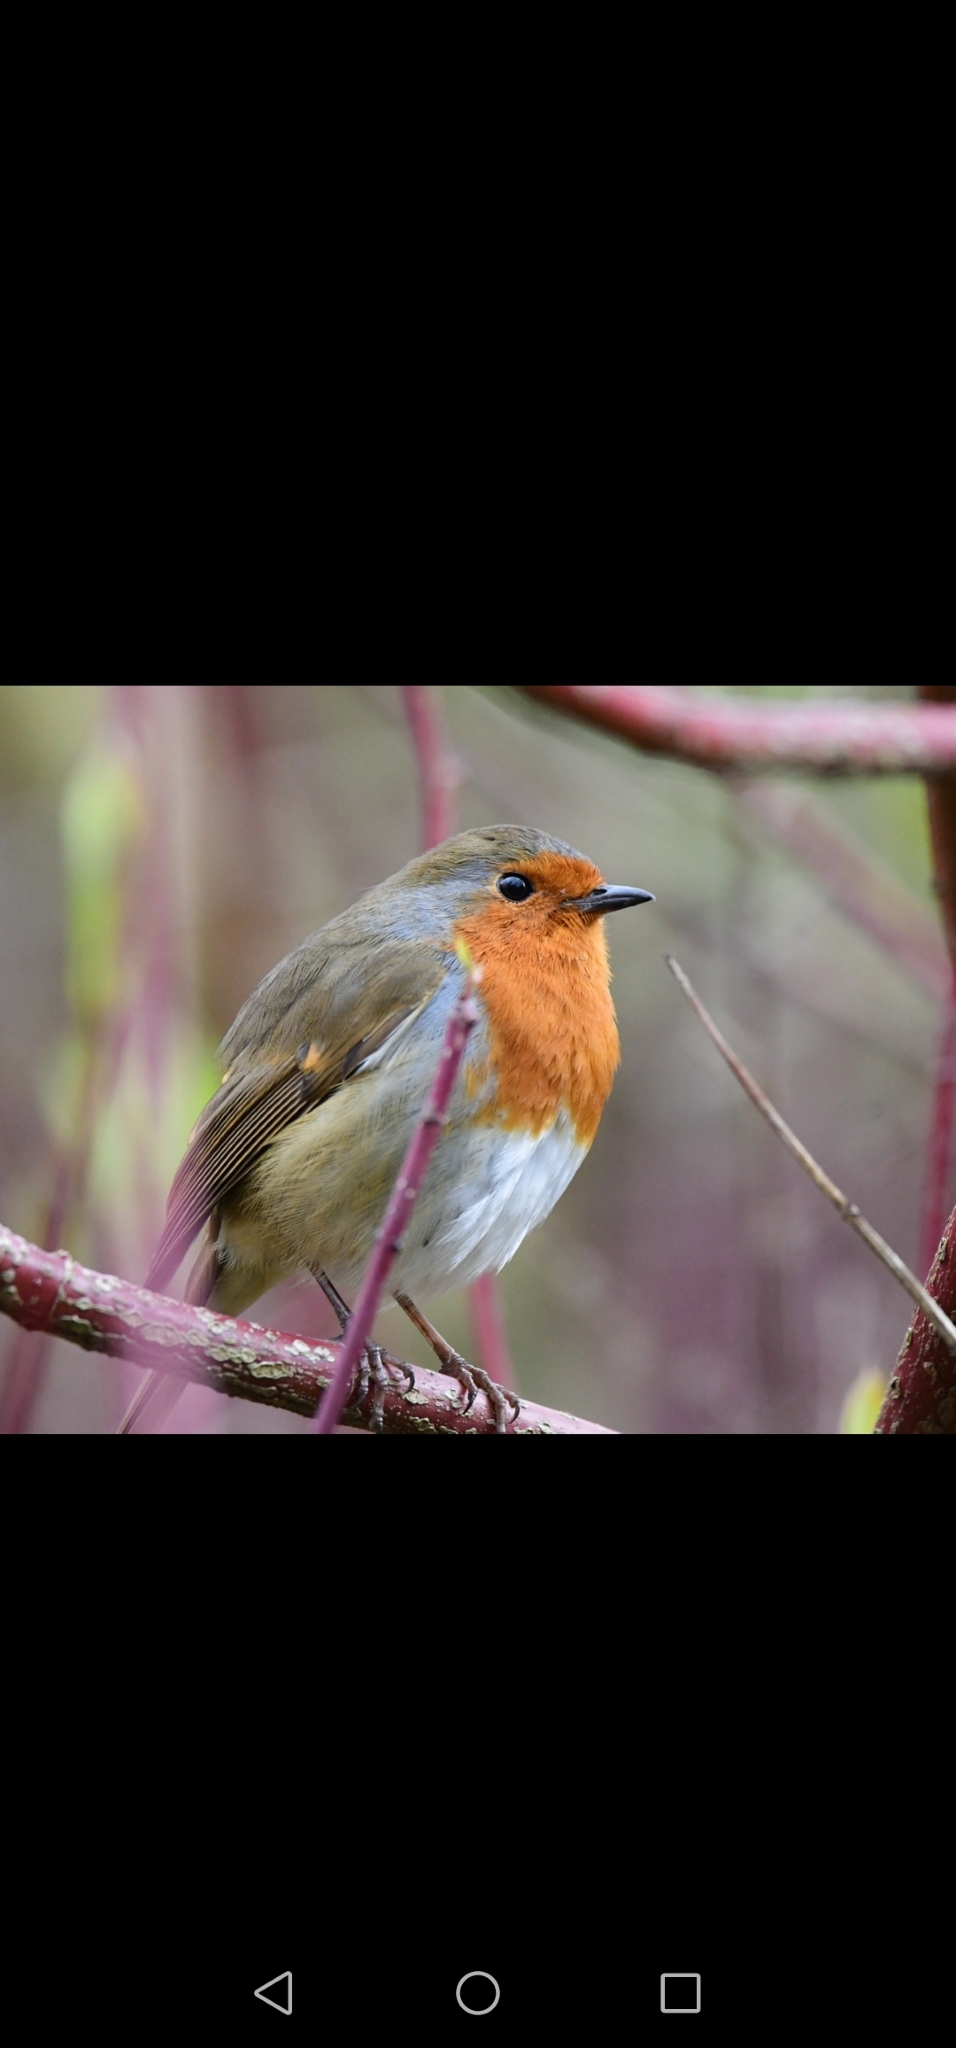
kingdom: Animalia
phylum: Chordata
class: Aves
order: Passeriformes
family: Muscicapidae
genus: Erithacus
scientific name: Erithacus rubecula
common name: European robin
